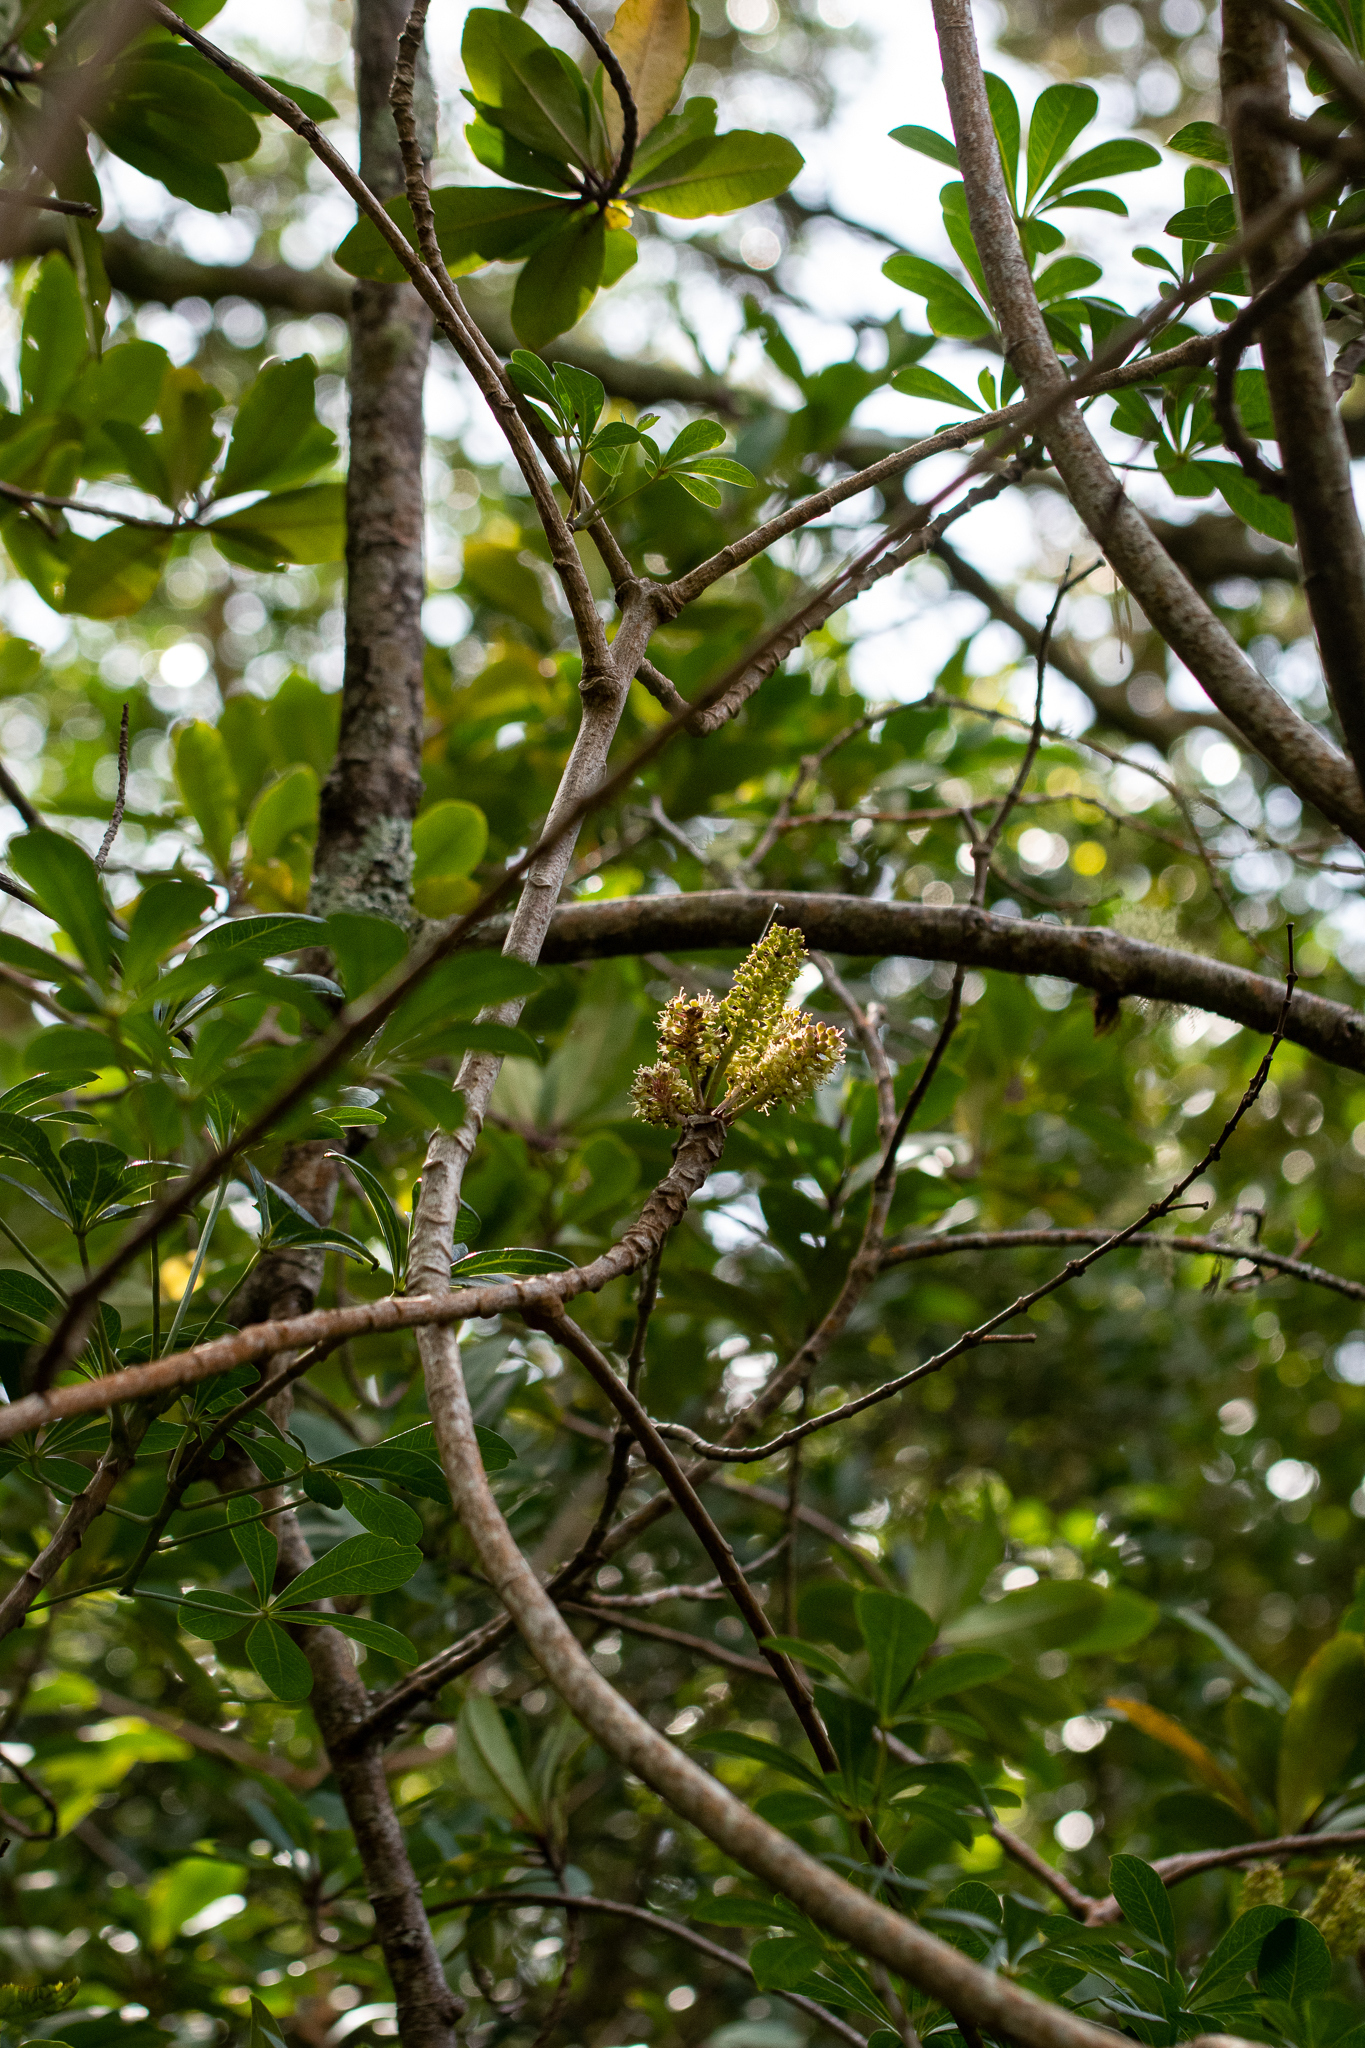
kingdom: Plantae
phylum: Tracheophyta
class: Magnoliopsida
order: Apiales
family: Araliaceae
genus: Cussonia
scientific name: Cussonia thyrsiflora
